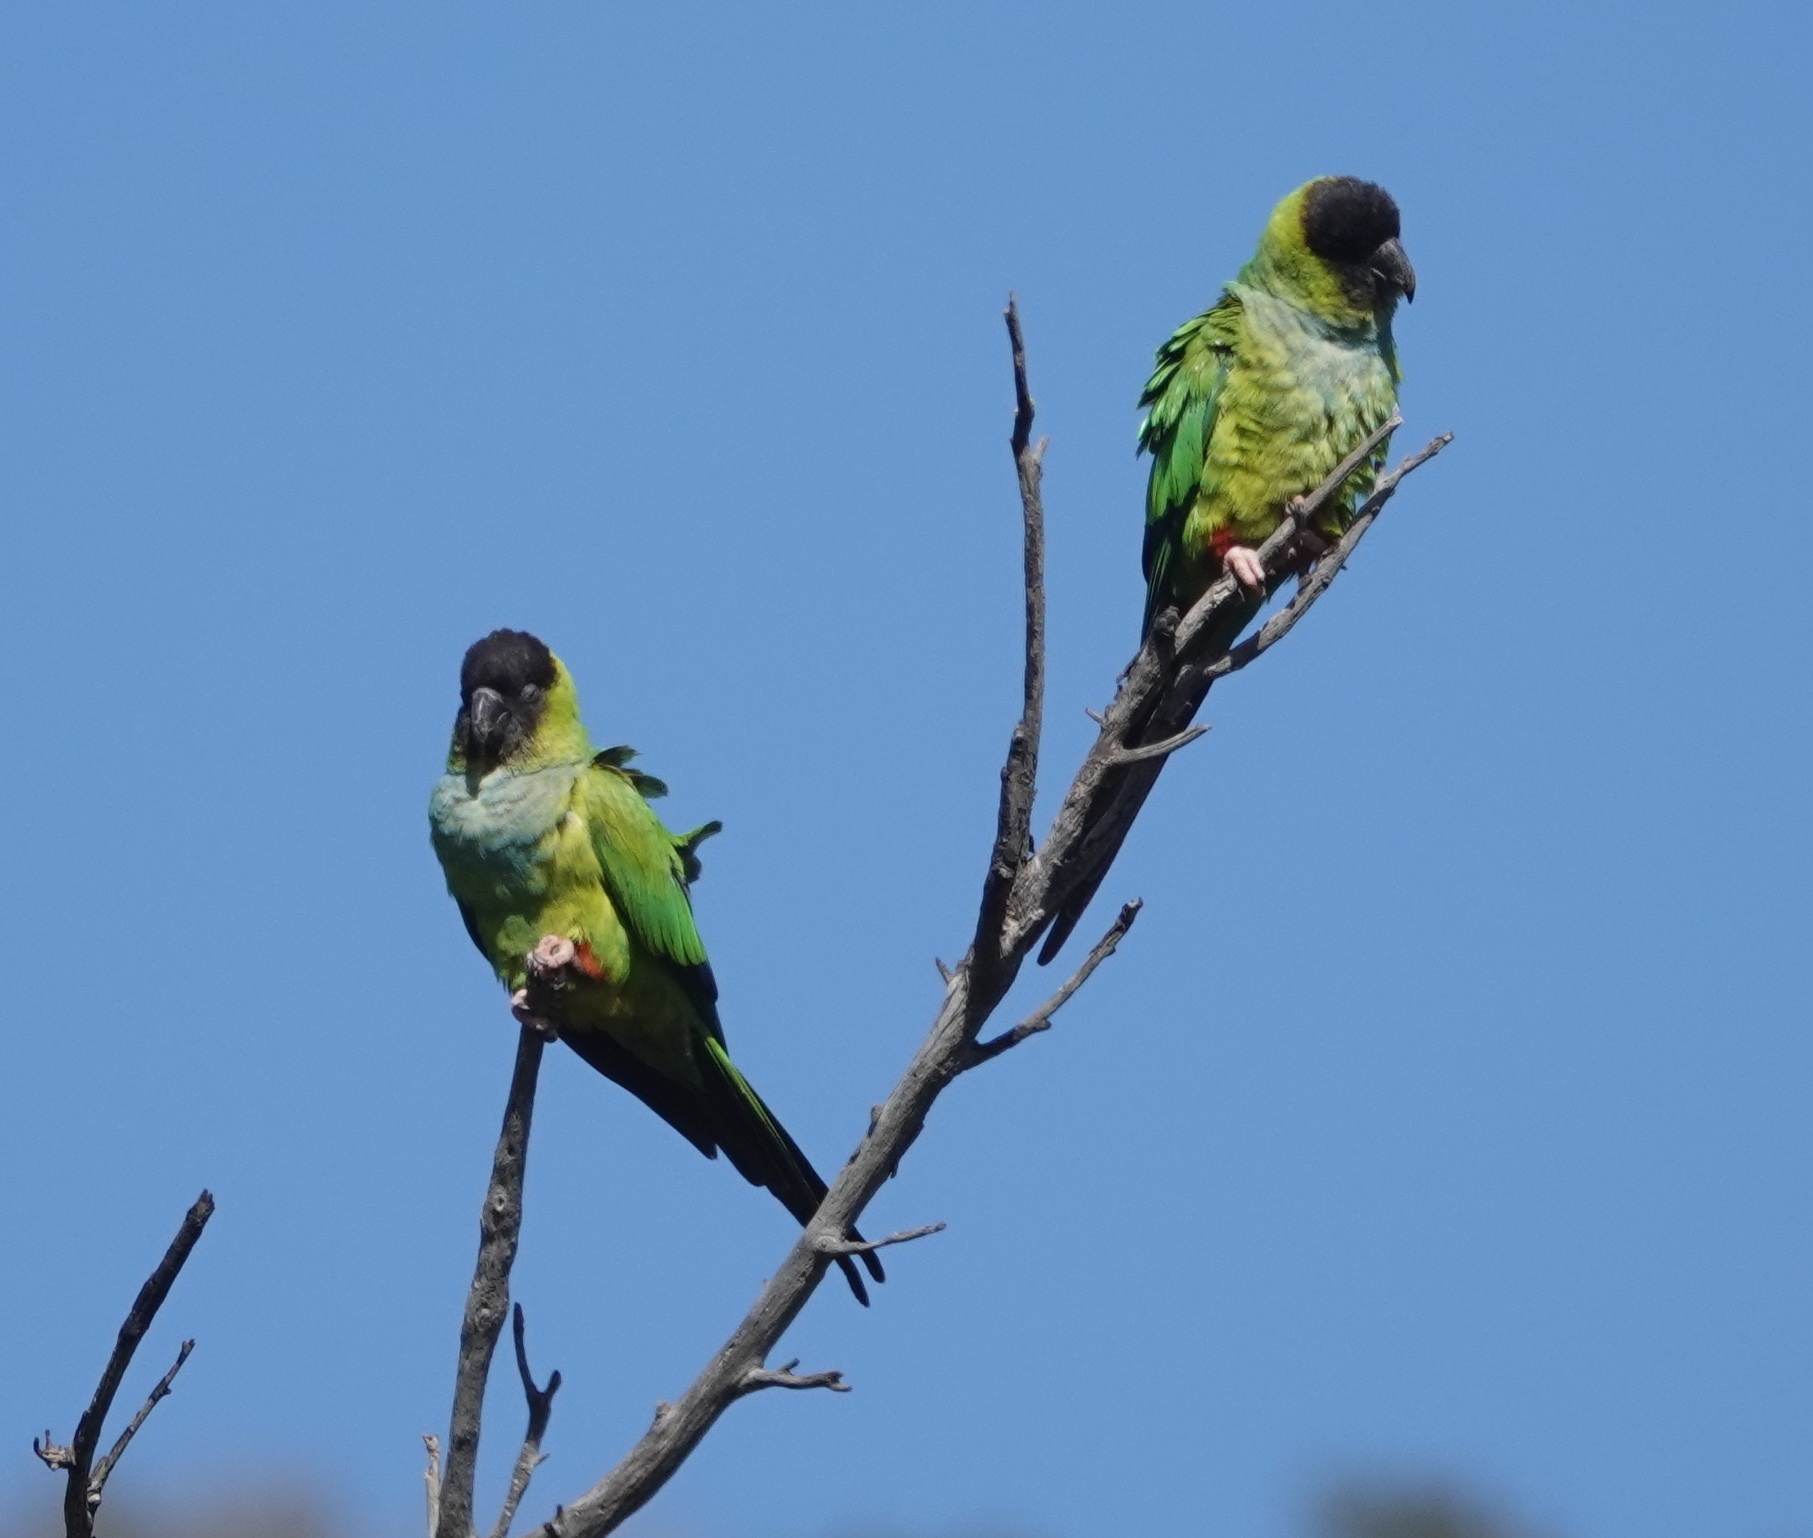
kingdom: Animalia
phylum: Chordata
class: Aves
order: Psittaciformes
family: Psittacidae
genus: Nandayus
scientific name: Nandayus nenday
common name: Nanday parakeet
